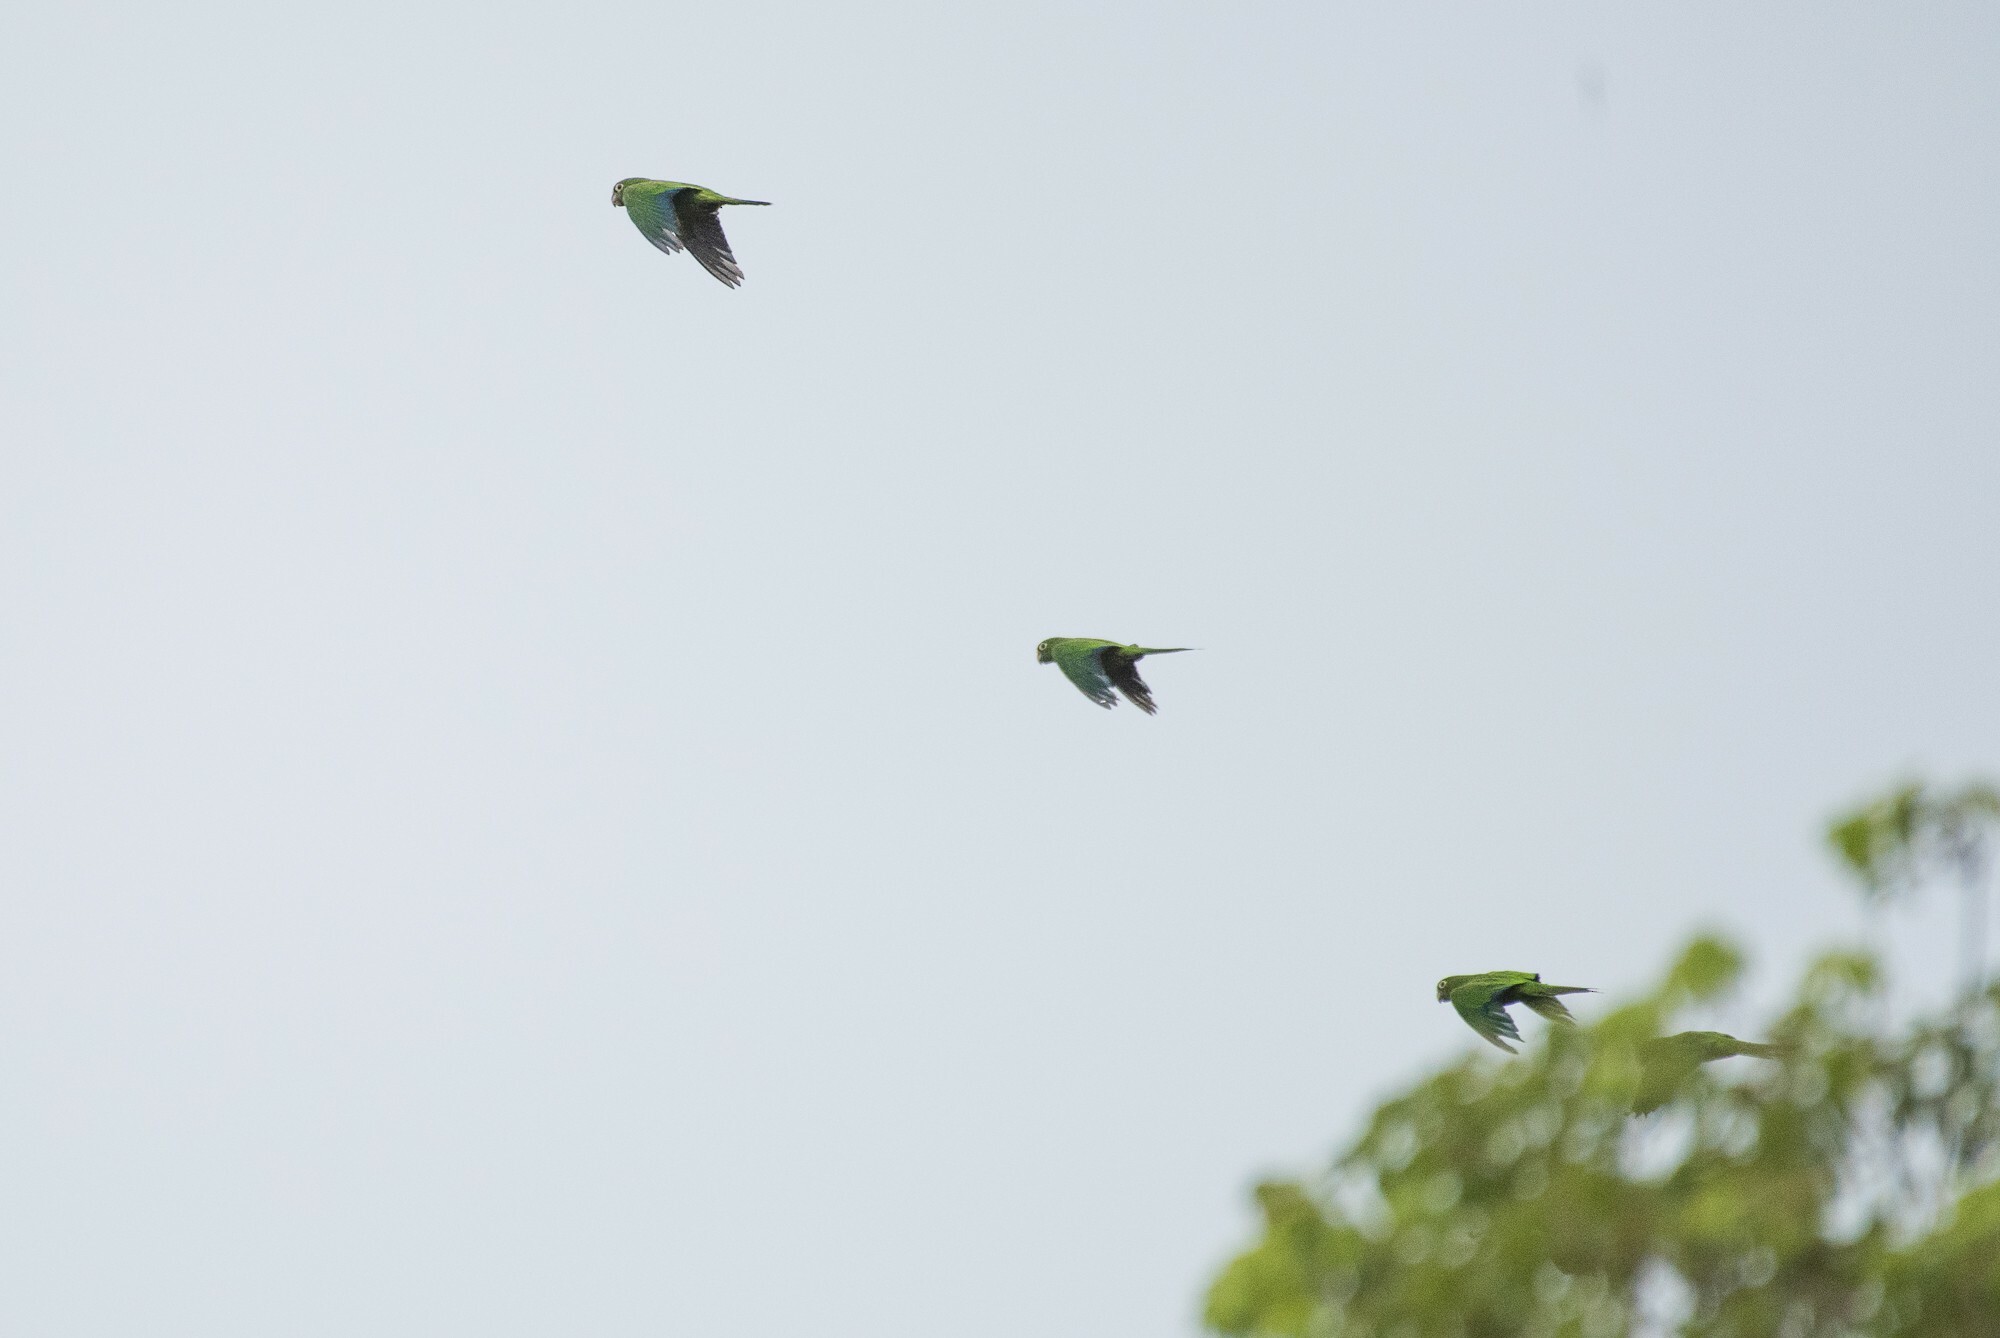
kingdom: Animalia
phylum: Chordata
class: Aves
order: Psittaciformes
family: Psittacidae
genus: Aratinga
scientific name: Aratinga nana
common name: Olive-throated parakeet
